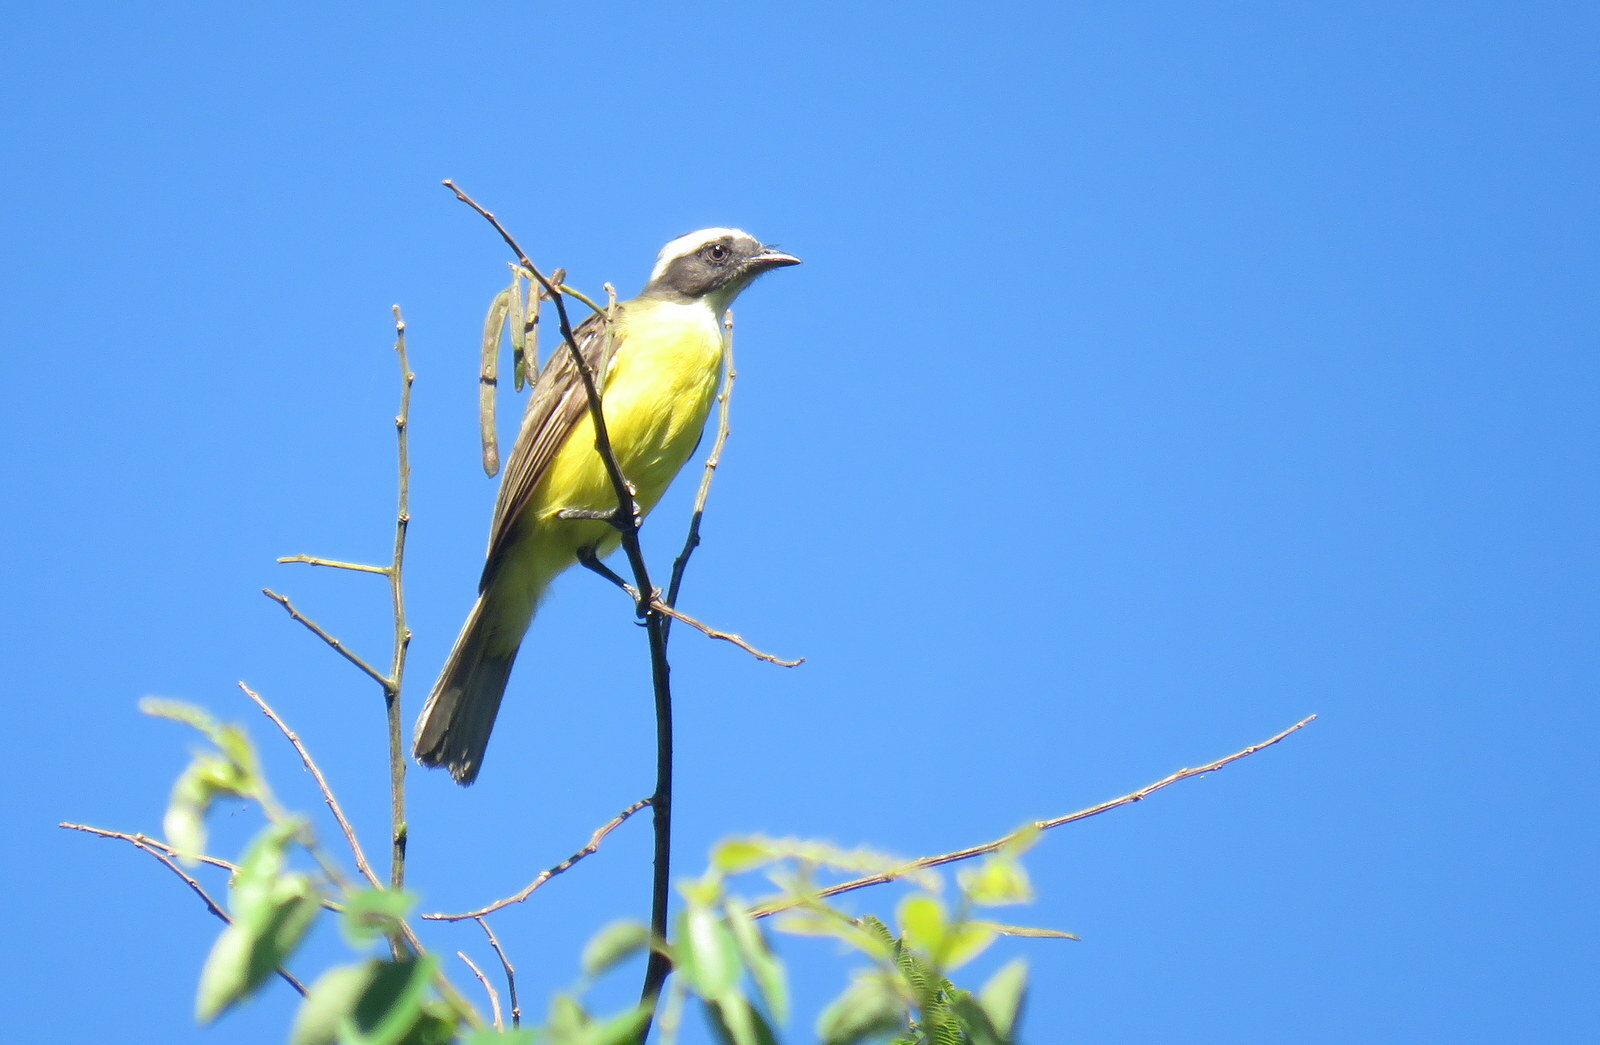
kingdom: Animalia
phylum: Chordata
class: Aves
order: Passeriformes
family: Tyrannidae
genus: Myiozetetes
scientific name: Myiozetetes similis
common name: Social flycatcher
